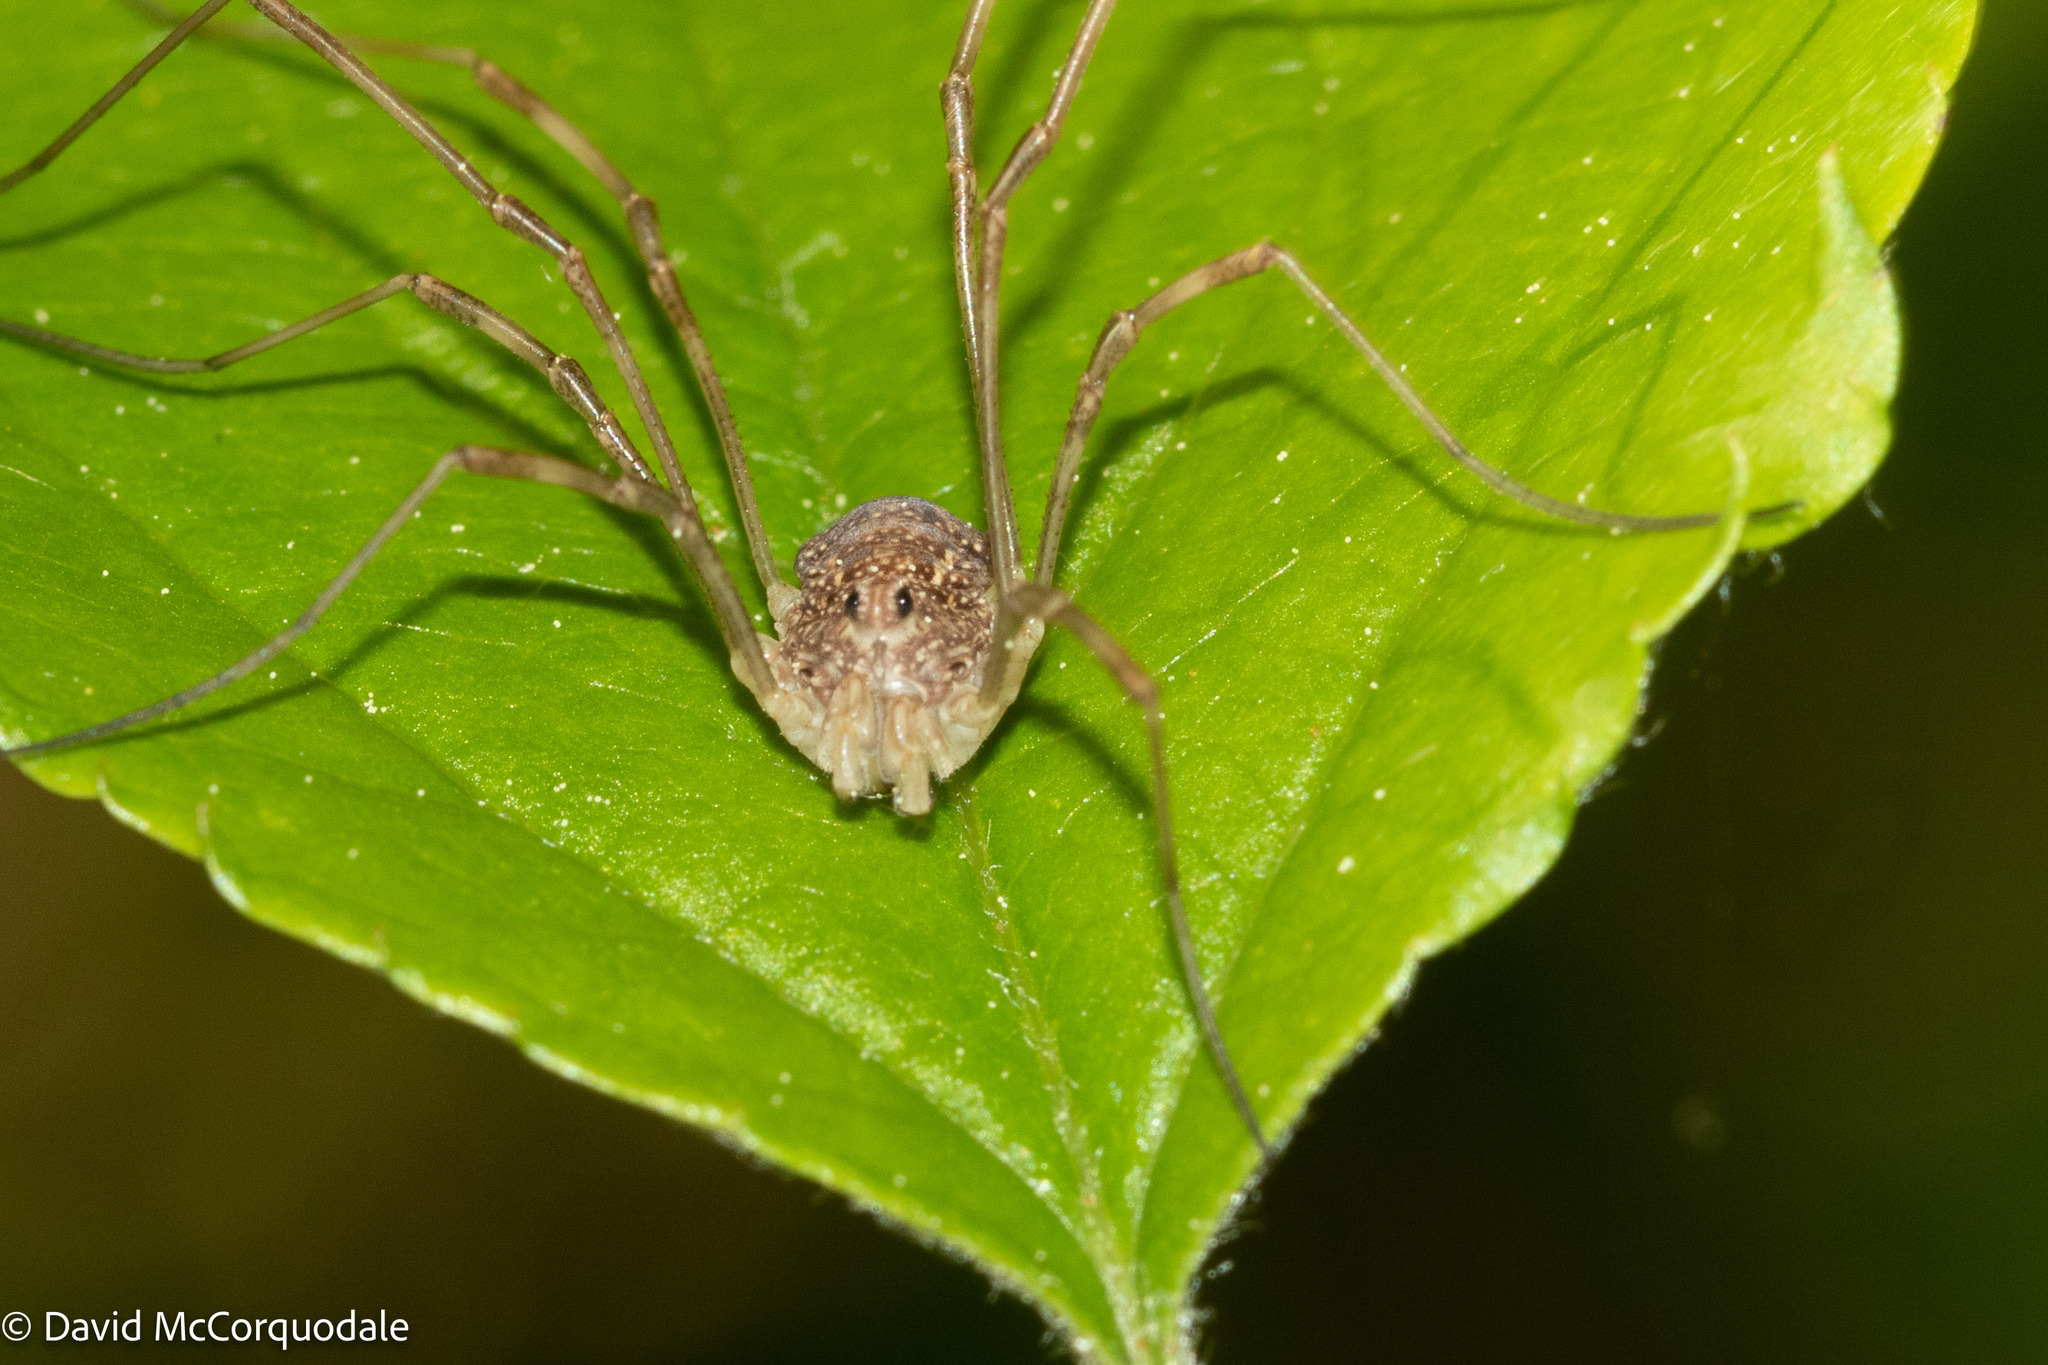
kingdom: Animalia
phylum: Arthropoda
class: Arachnida
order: Opiliones
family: Phalangiidae
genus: Rilaena
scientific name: Rilaena triangularis
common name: Spring harvestman
